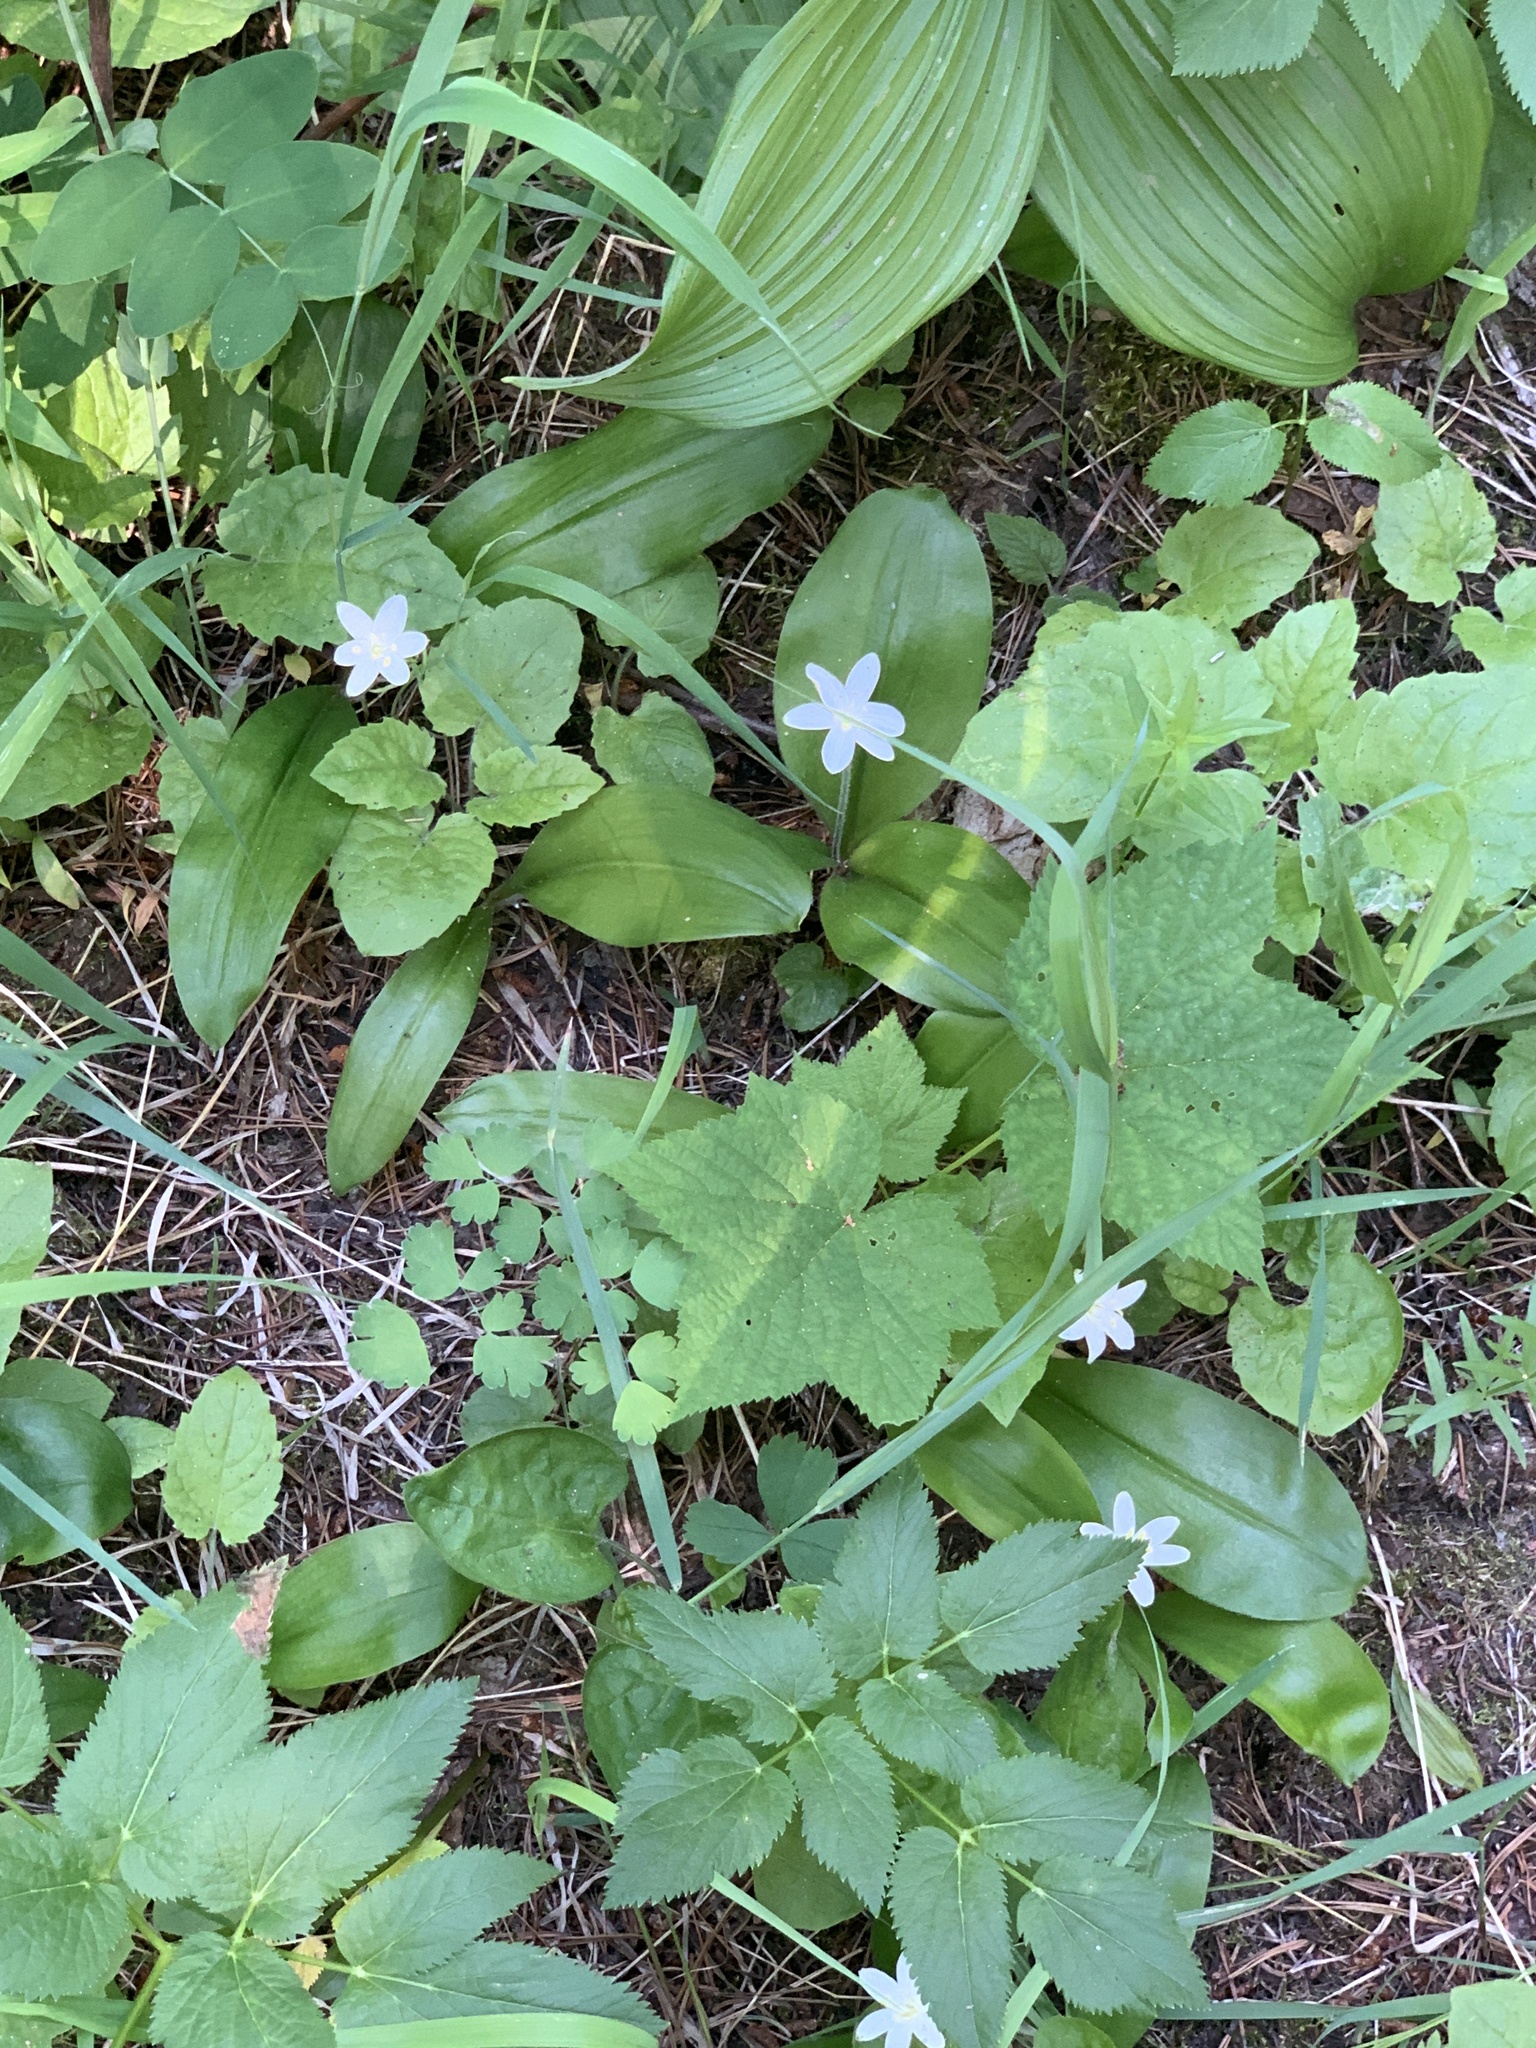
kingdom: Plantae
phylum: Tracheophyta
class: Liliopsida
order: Liliales
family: Liliaceae
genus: Clintonia
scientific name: Clintonia uniflora
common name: Queen's cup
